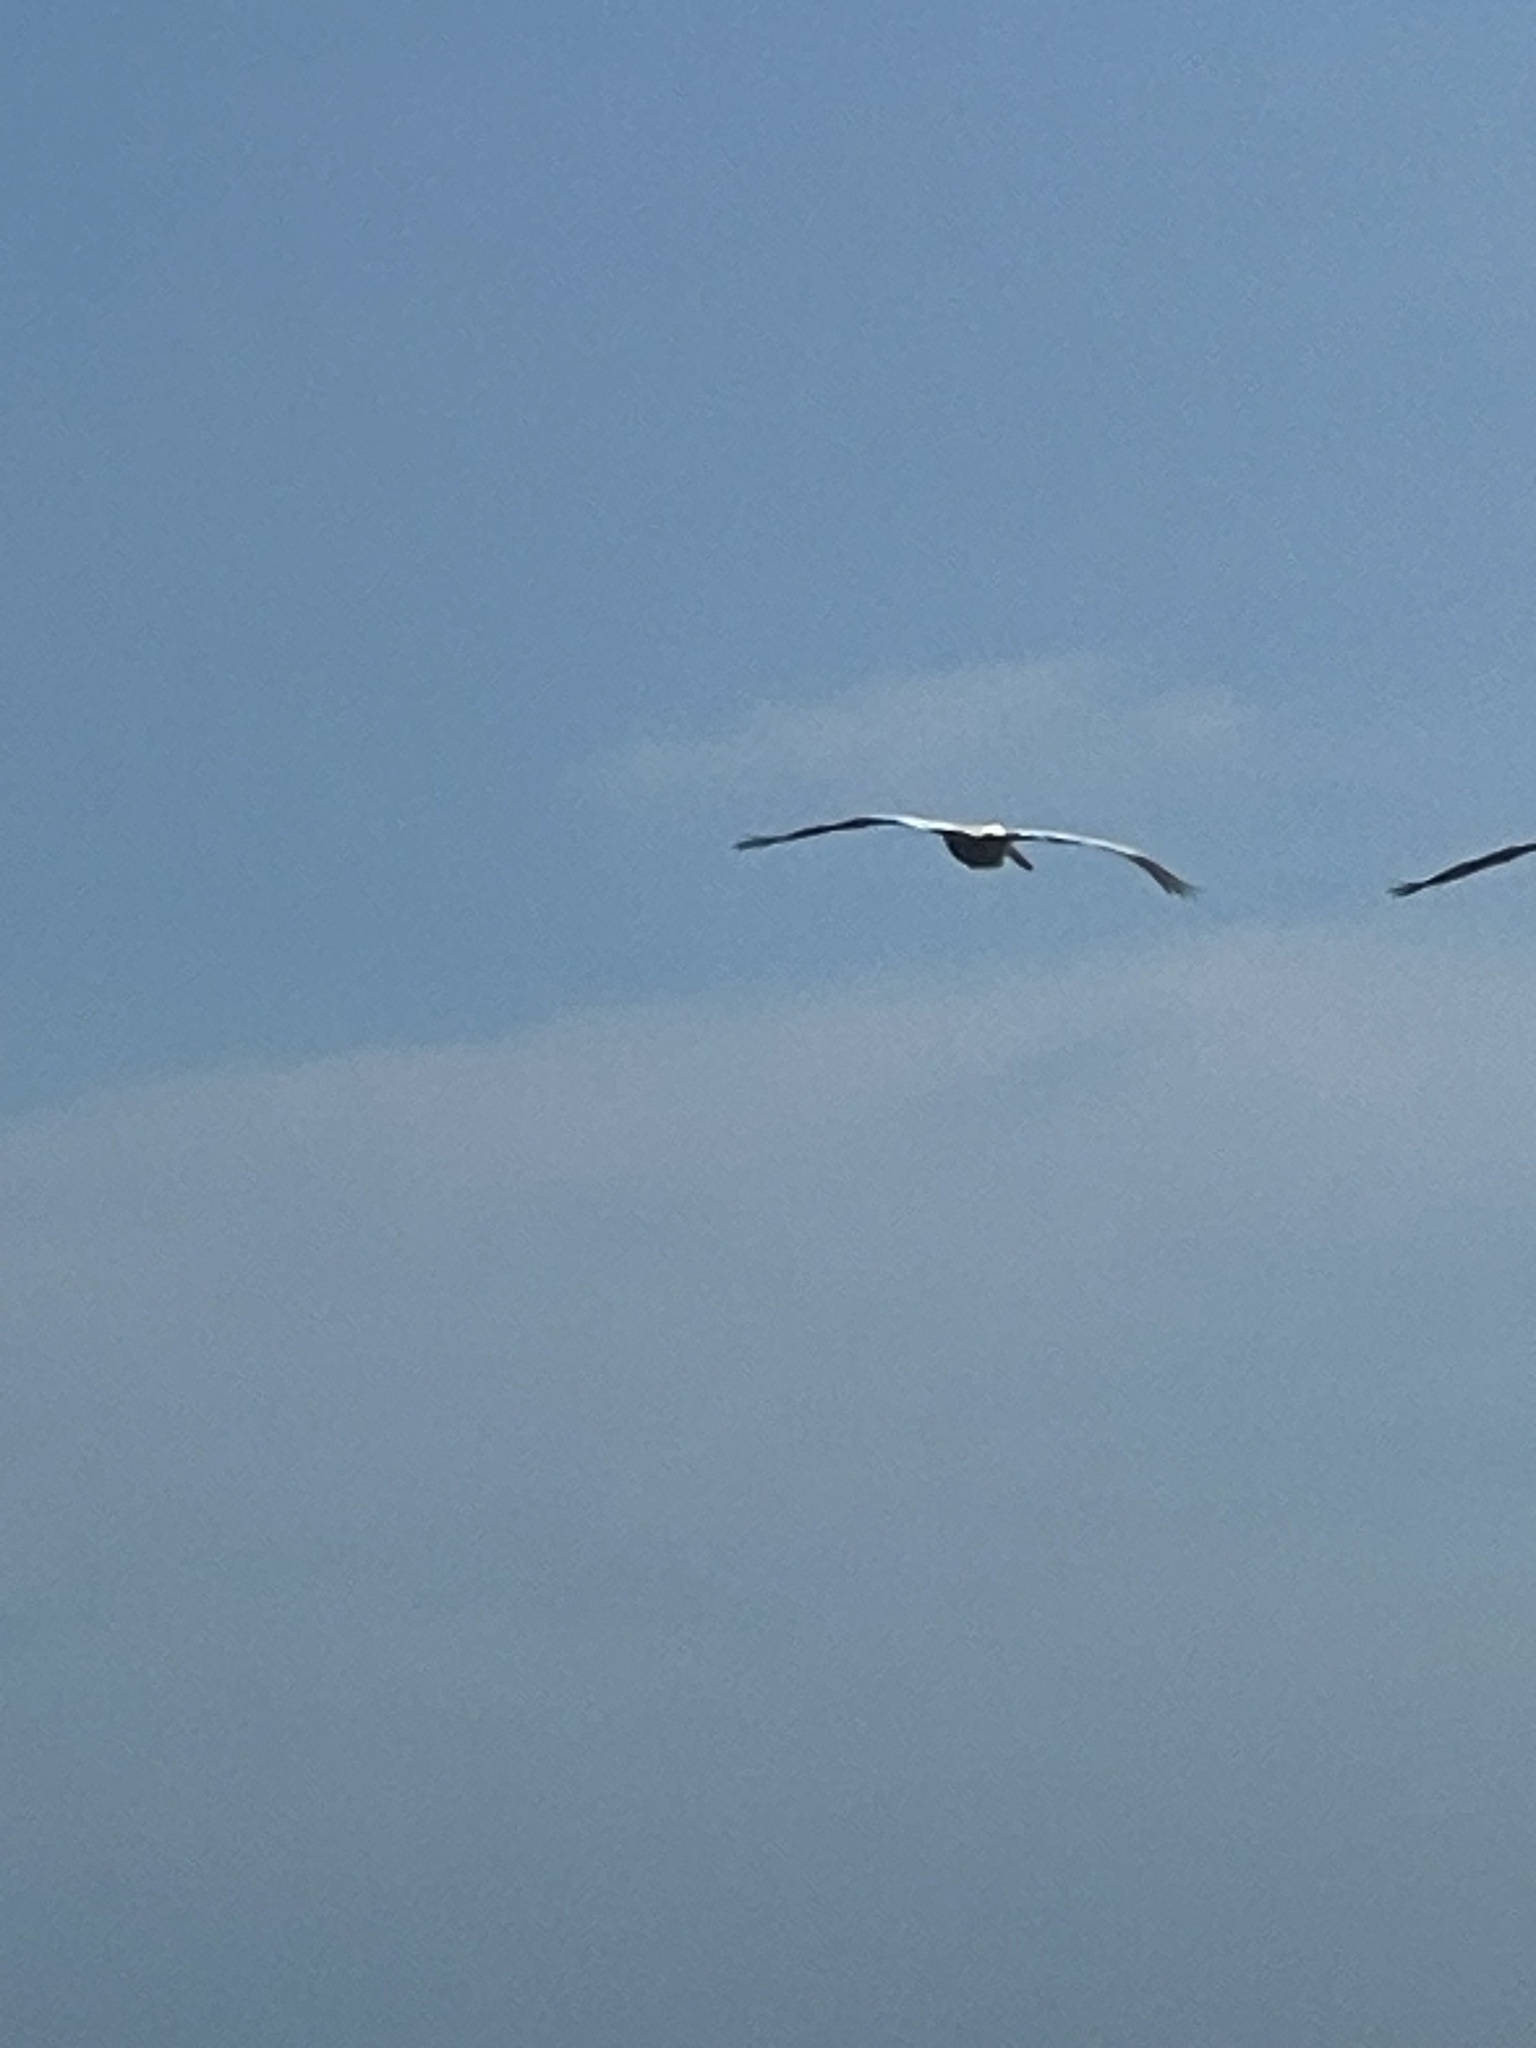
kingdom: Animalia
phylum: Chordata
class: Aves
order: Pelecaniformes
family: Pelecanidae
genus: Pelecanus
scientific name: Pelecanus occidentalis
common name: Brown pelican
